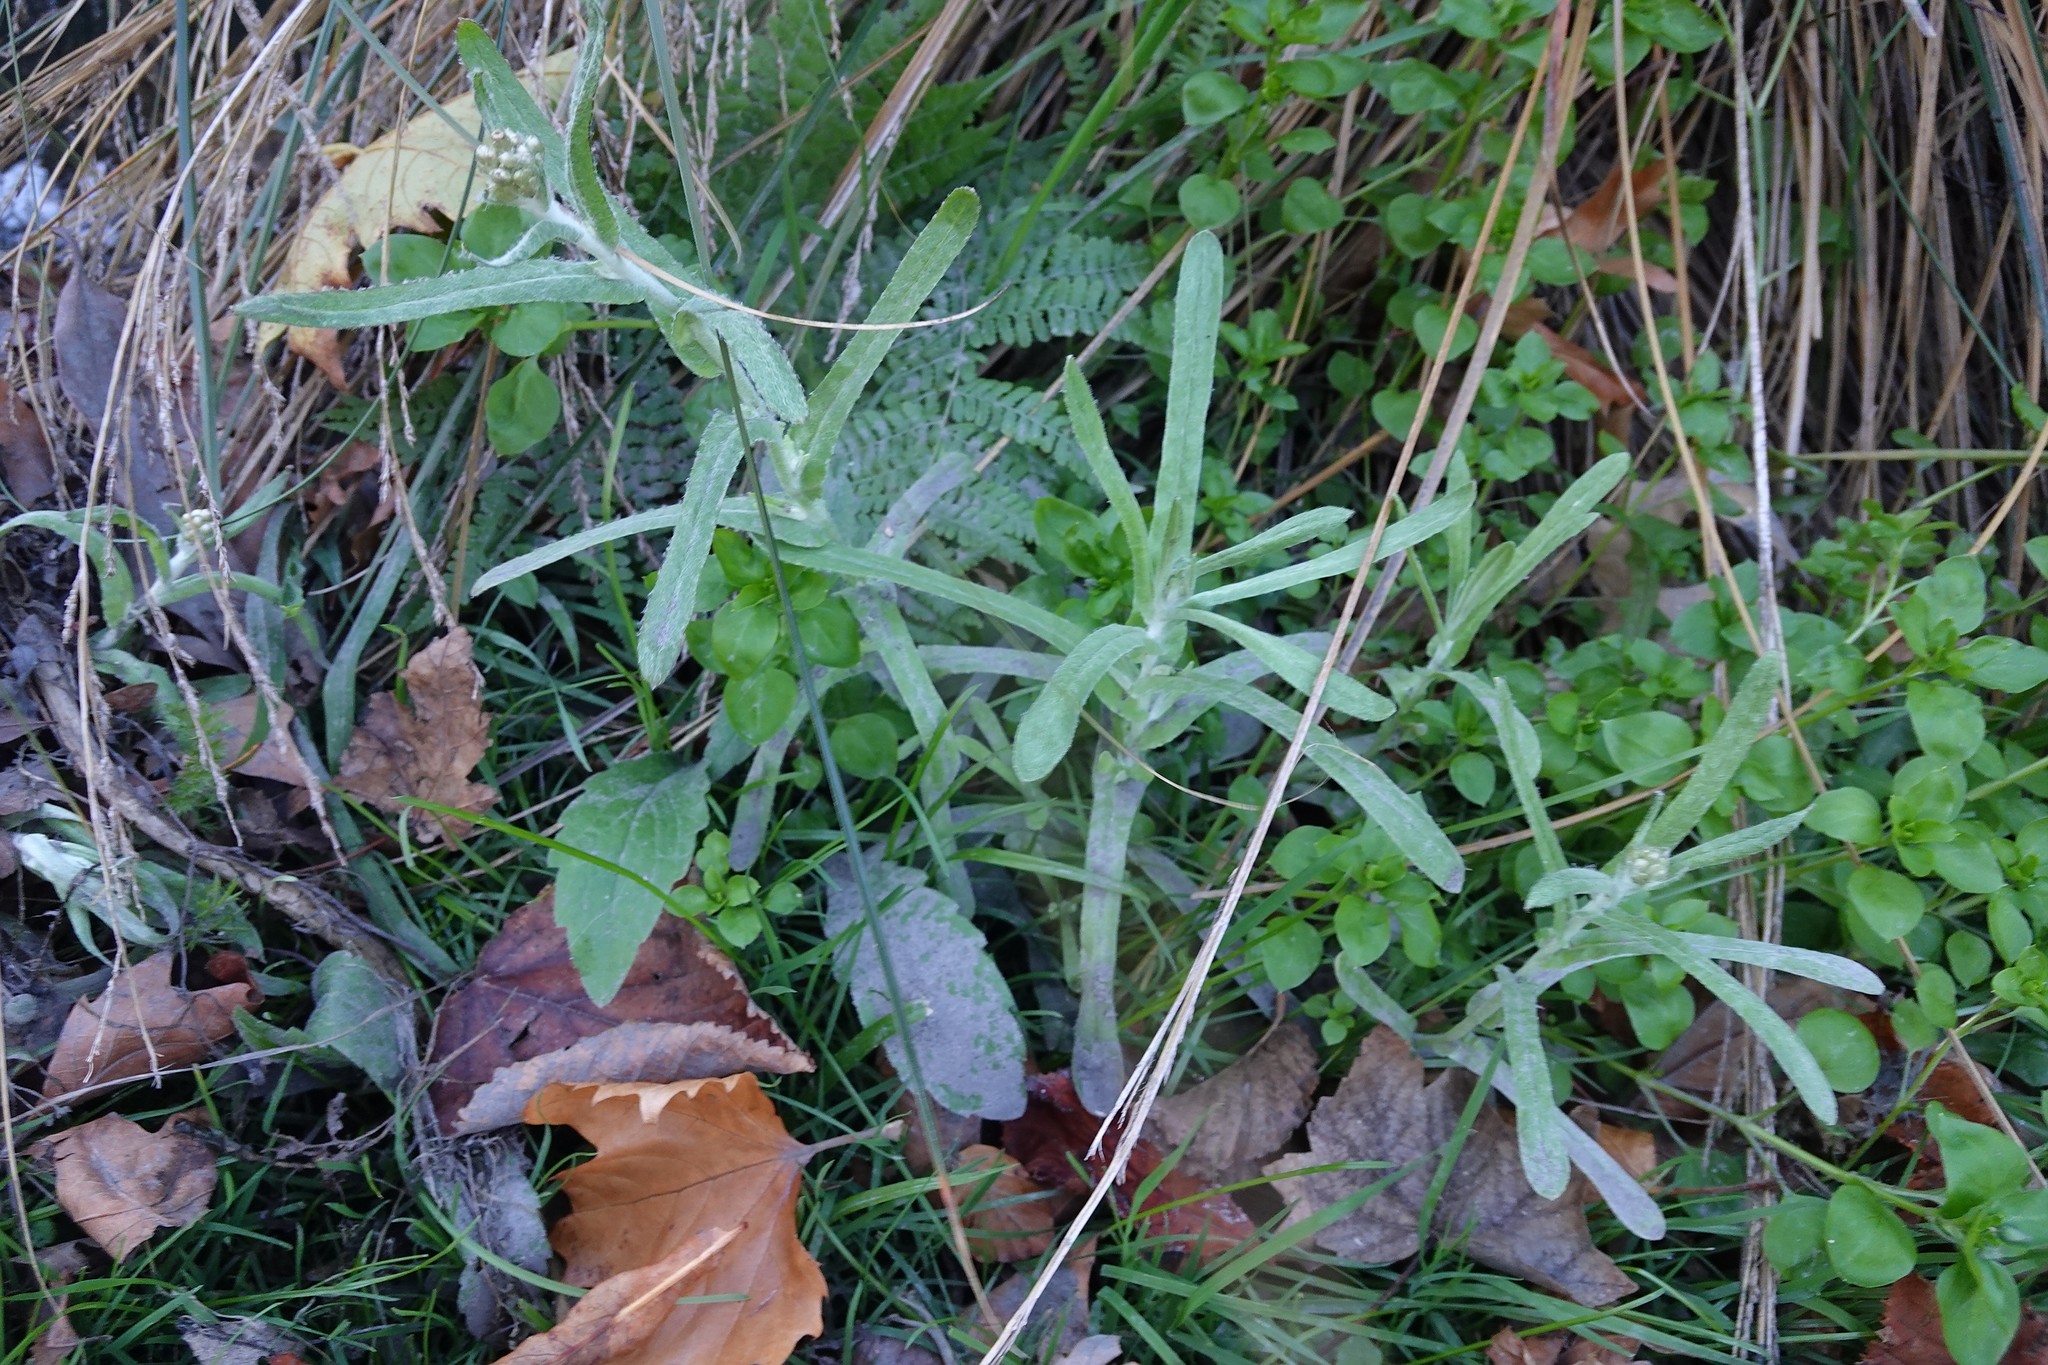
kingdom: Plantae
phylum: Tracheophyta
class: Magnoliopsida
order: Asterales
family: Asteraceae
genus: Helichrysum
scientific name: Helichrysum luteoalbum
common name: Daisy
